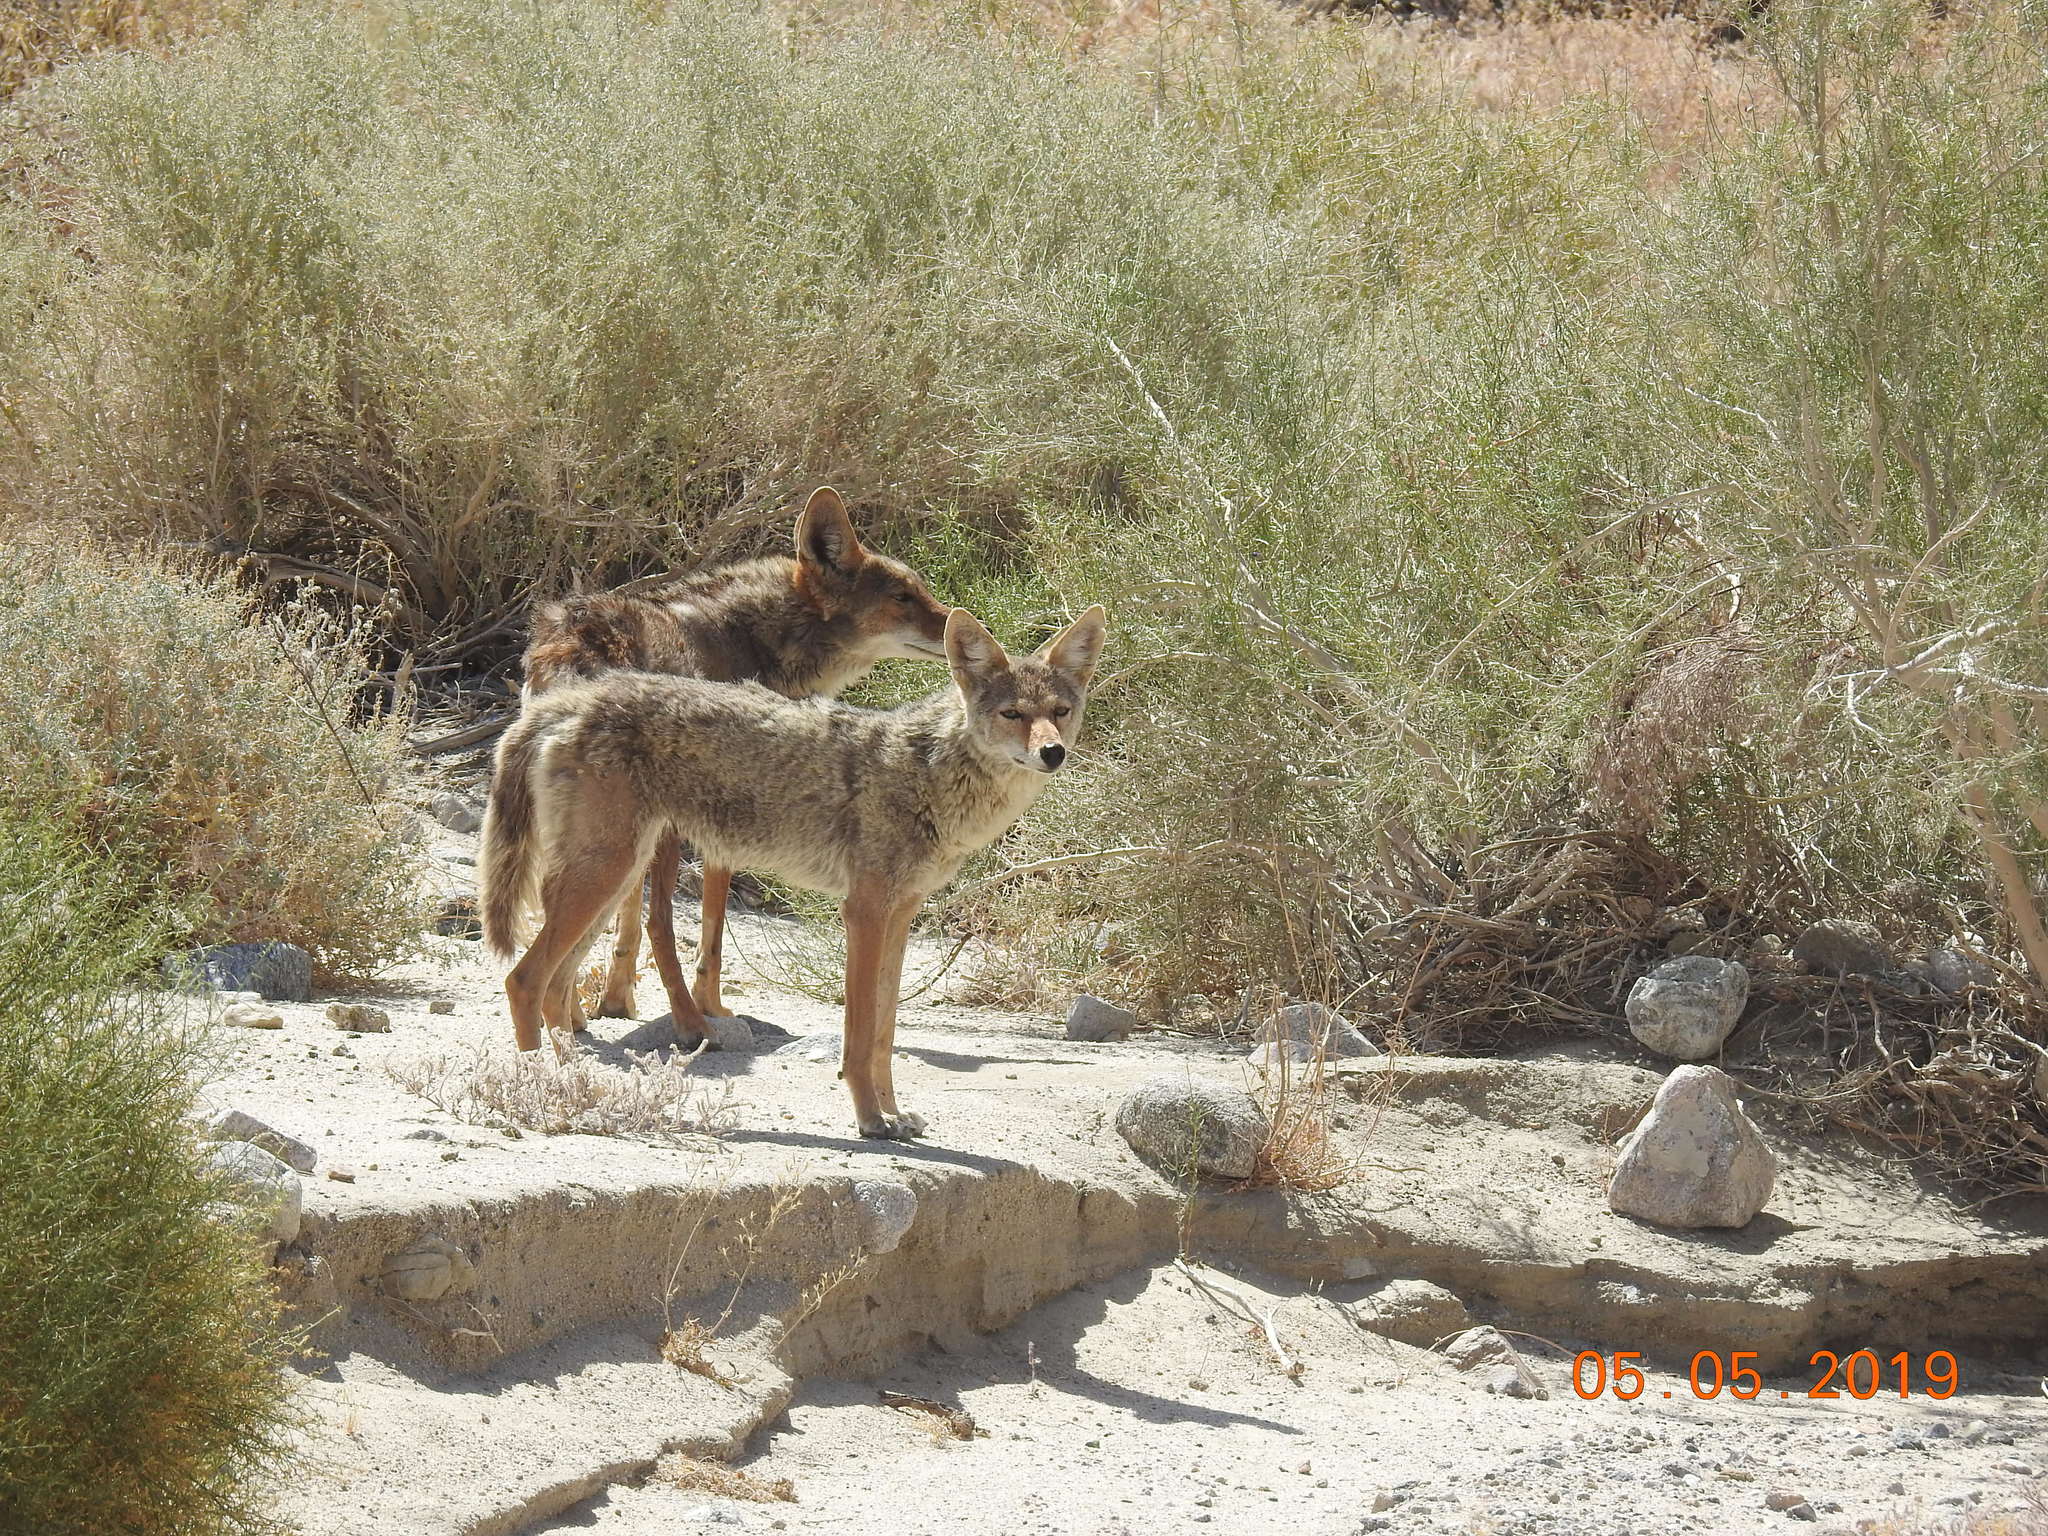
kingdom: Animalia
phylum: Chordata
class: Mammalia
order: Carnivora
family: Canidae
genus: Canis
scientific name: Canis latrans
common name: Coyote
